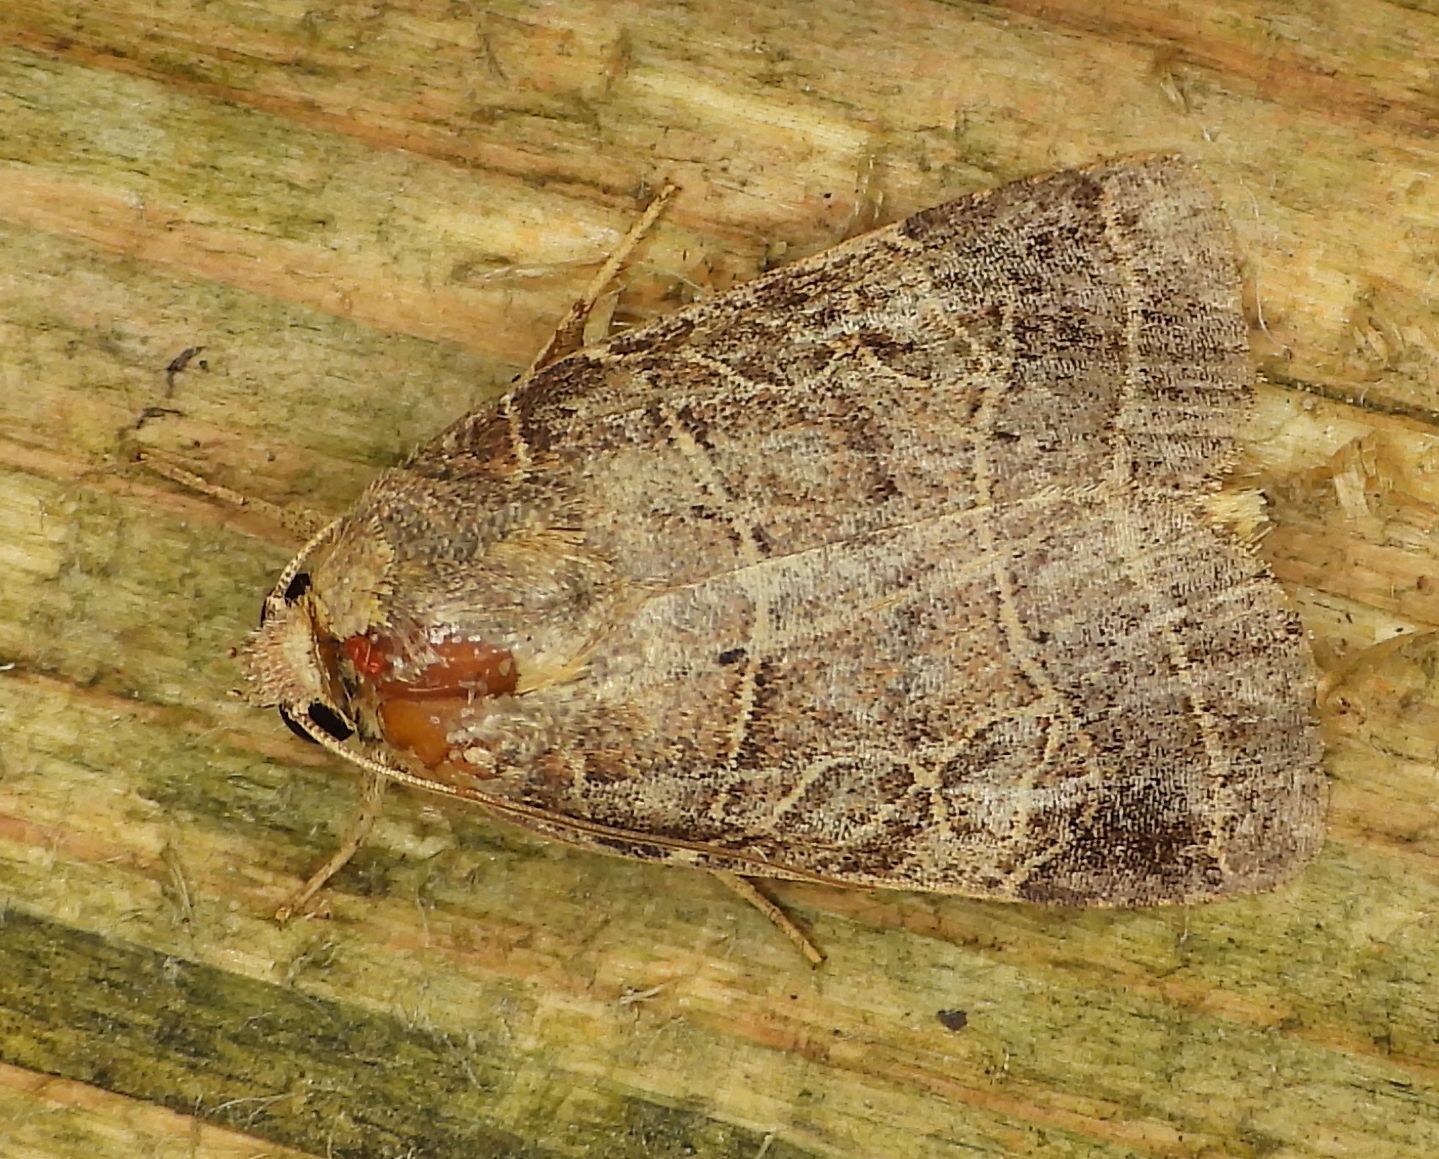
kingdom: Animalia
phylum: Arthropoda
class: Insecta
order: Lepidoptera
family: Noctuidae
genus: Orthodes
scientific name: Orthodes majuscula
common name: Rustic quaker
